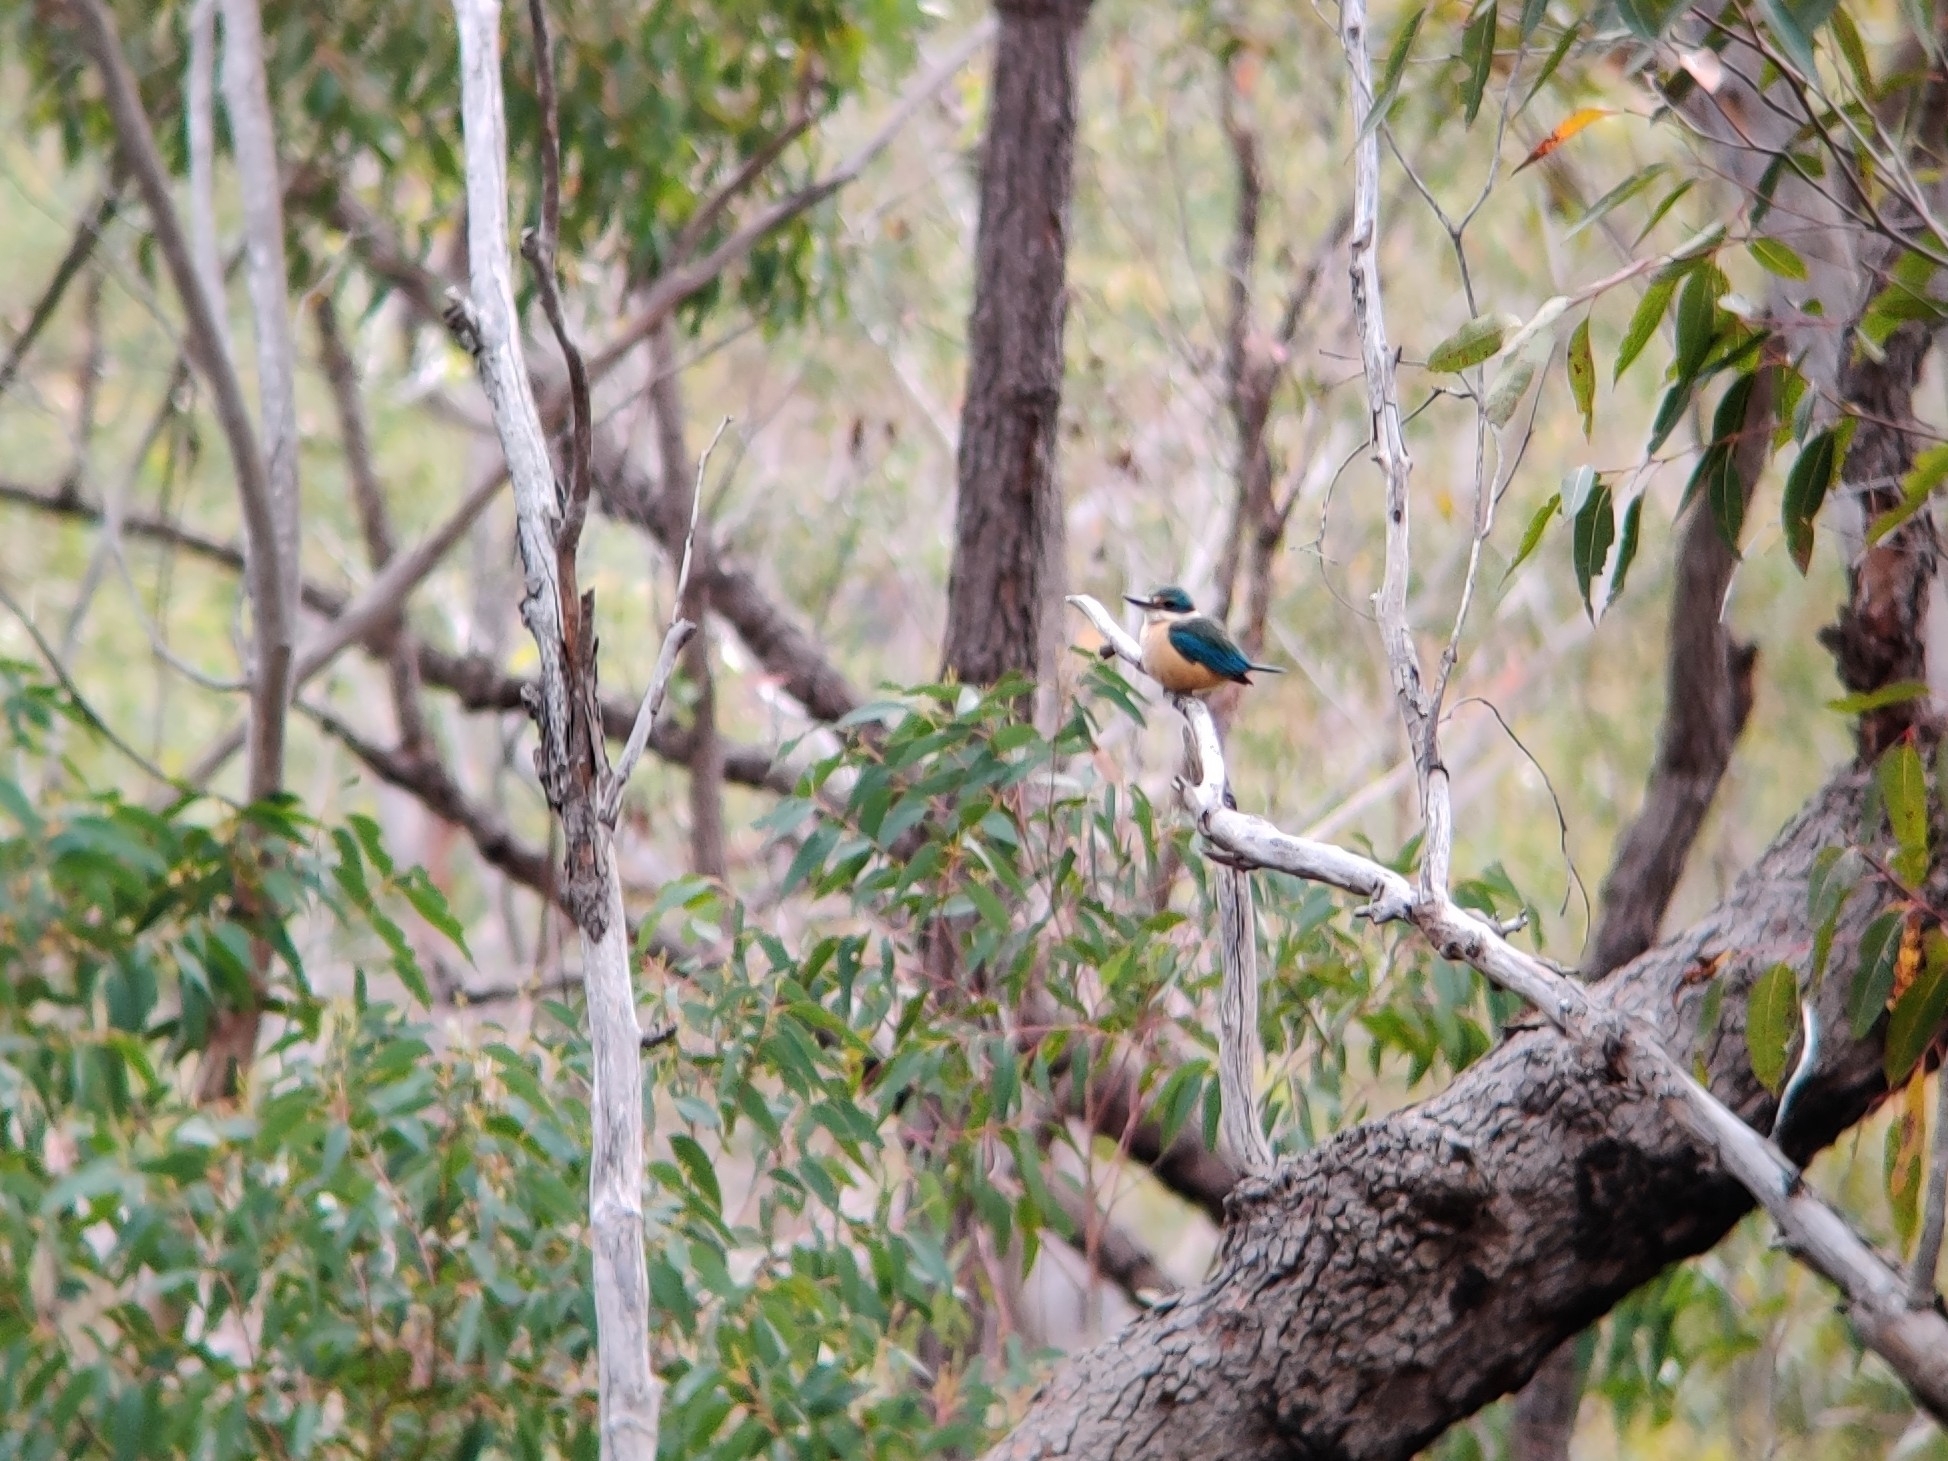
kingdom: Animalia
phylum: Chordata
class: Aves
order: Coraciiformes
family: Alcedinidae
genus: Todiramphus
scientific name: Todiramphus sanctus
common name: Sacred kingfisher
